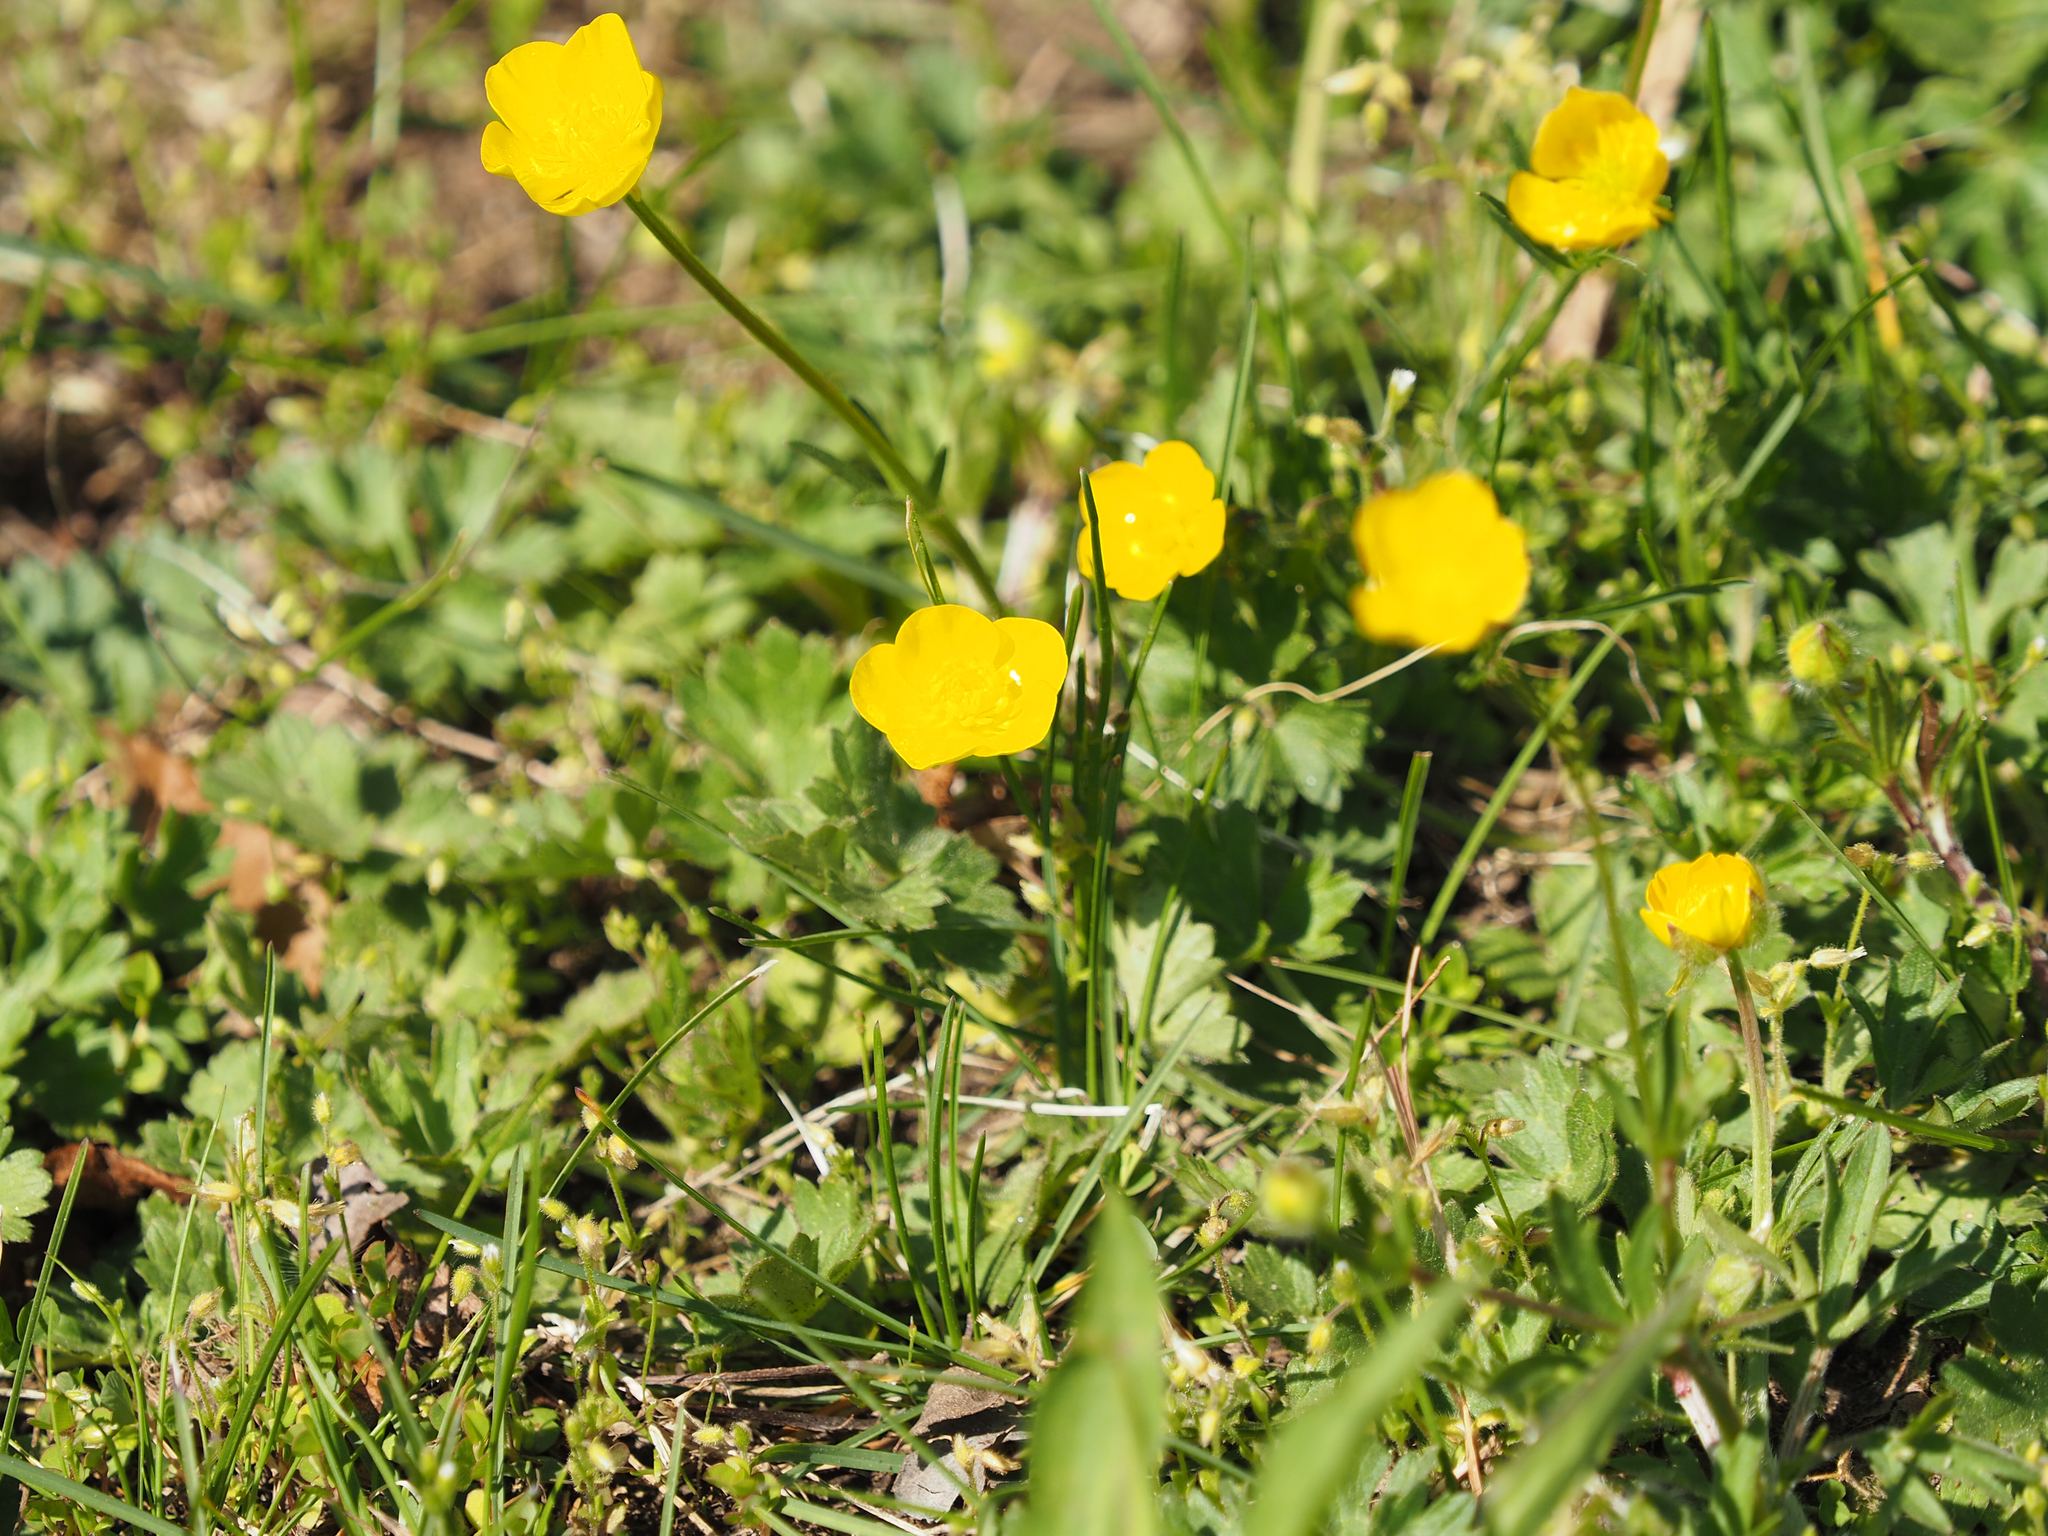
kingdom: Plantae
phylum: Tracheophyta
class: Magnoliopsida
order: Ranunculales
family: Ranunculaceae
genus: Ranunculus
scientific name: Ranunculus bulbosus
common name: Bulbous buttercup
